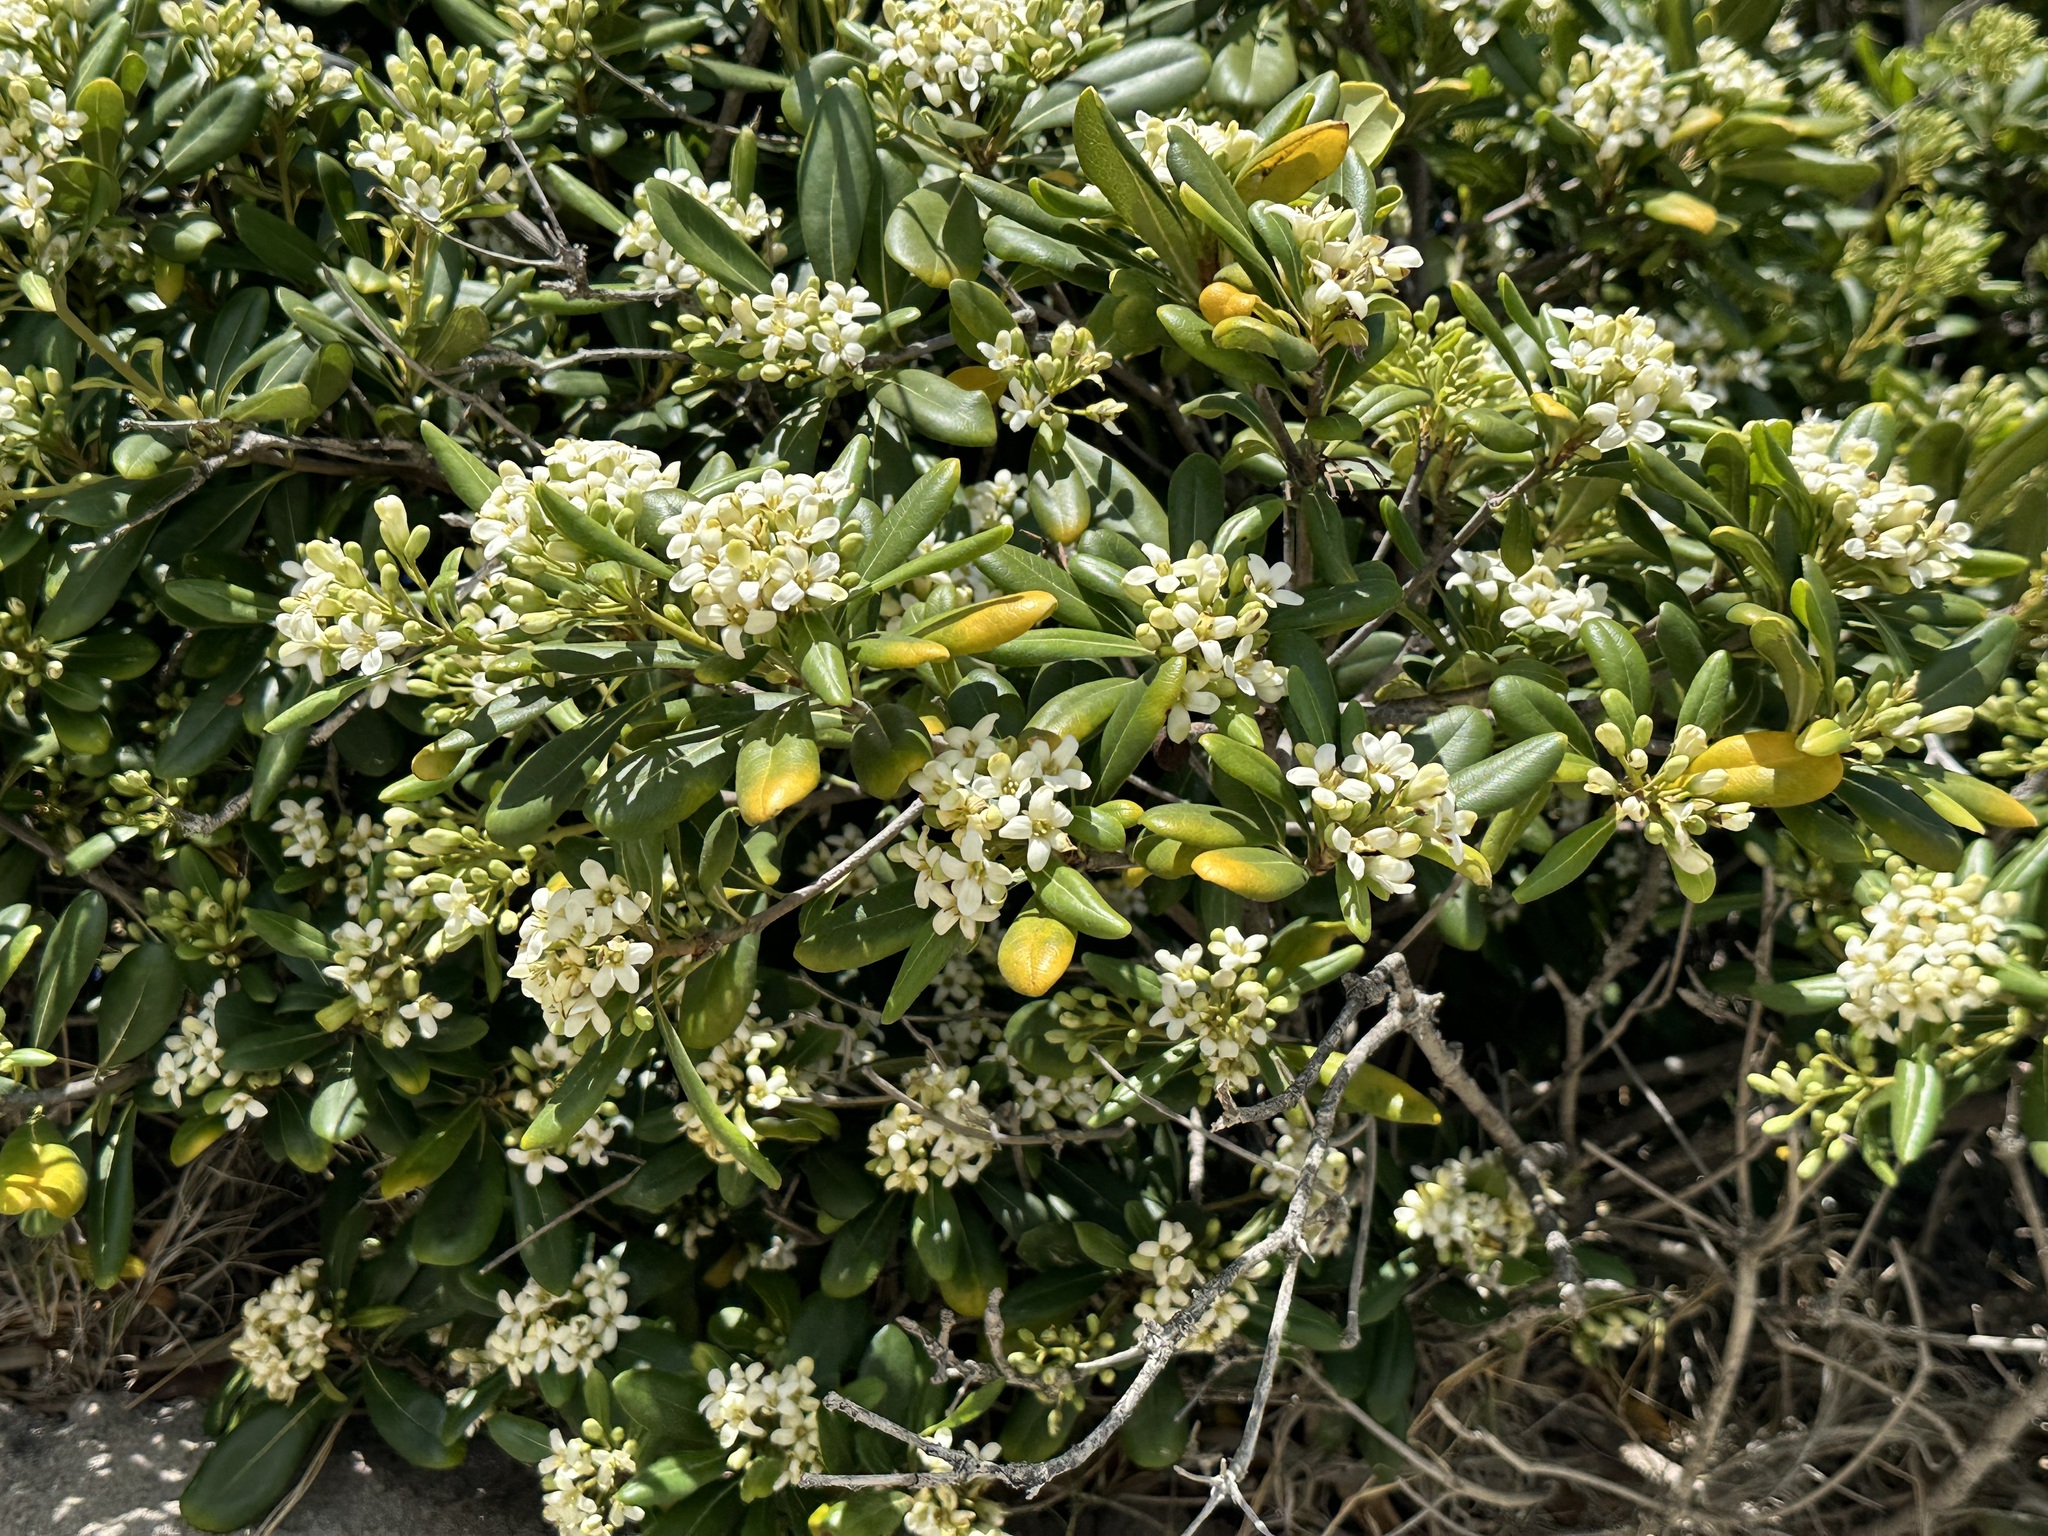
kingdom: Plantae
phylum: Tracheophyta
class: Magnoliopsida
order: Apiales
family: Pittosporaceae
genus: Pittosporum
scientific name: Pittosporum tobira
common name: Japanese cheesewood
